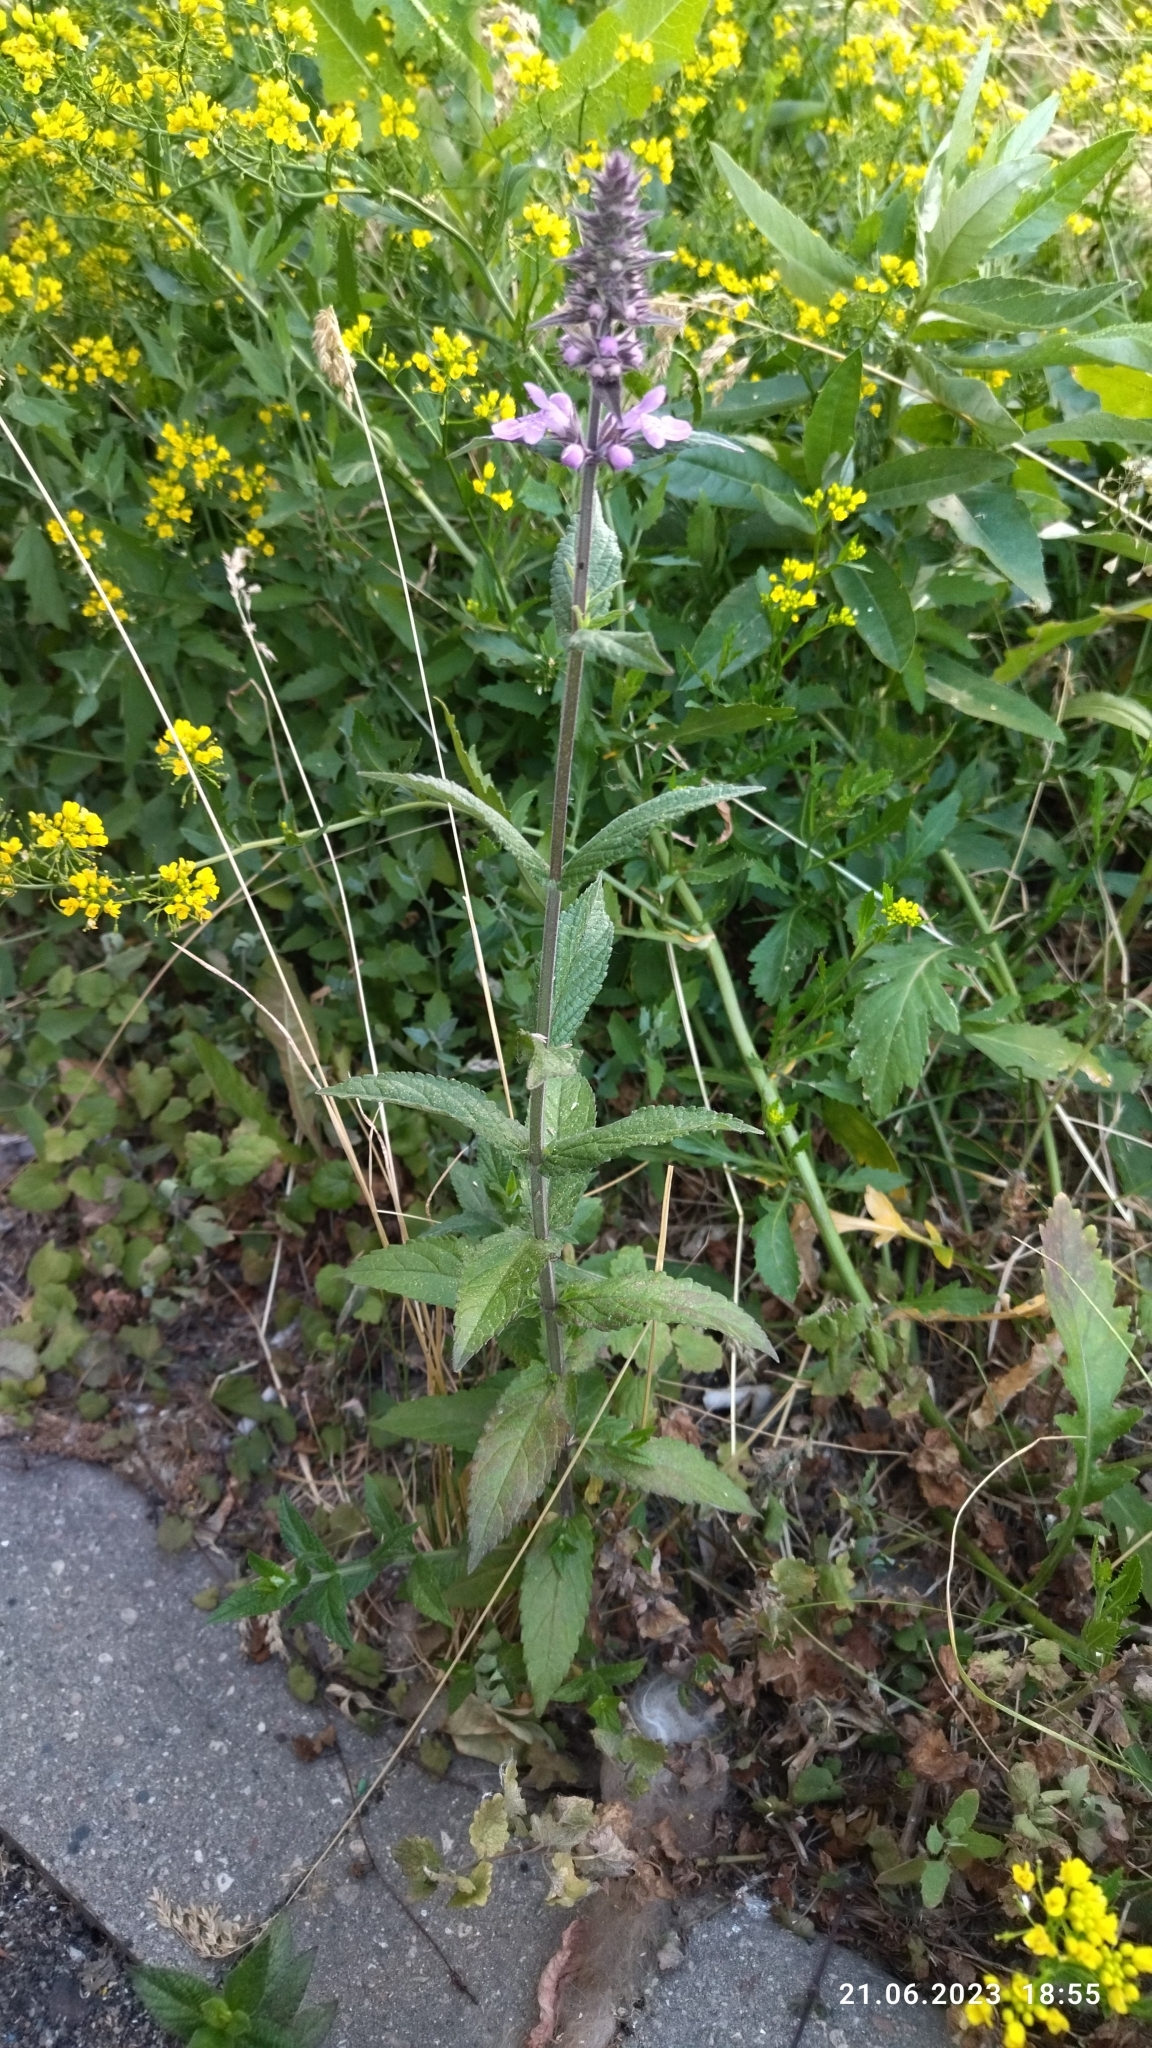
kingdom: Plantae
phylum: Tracheophyta
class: Magnoliopsida
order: Lamiales
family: Lamiaceae
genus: Stachys
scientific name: Stachys palustris
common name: Marsh woundwort
